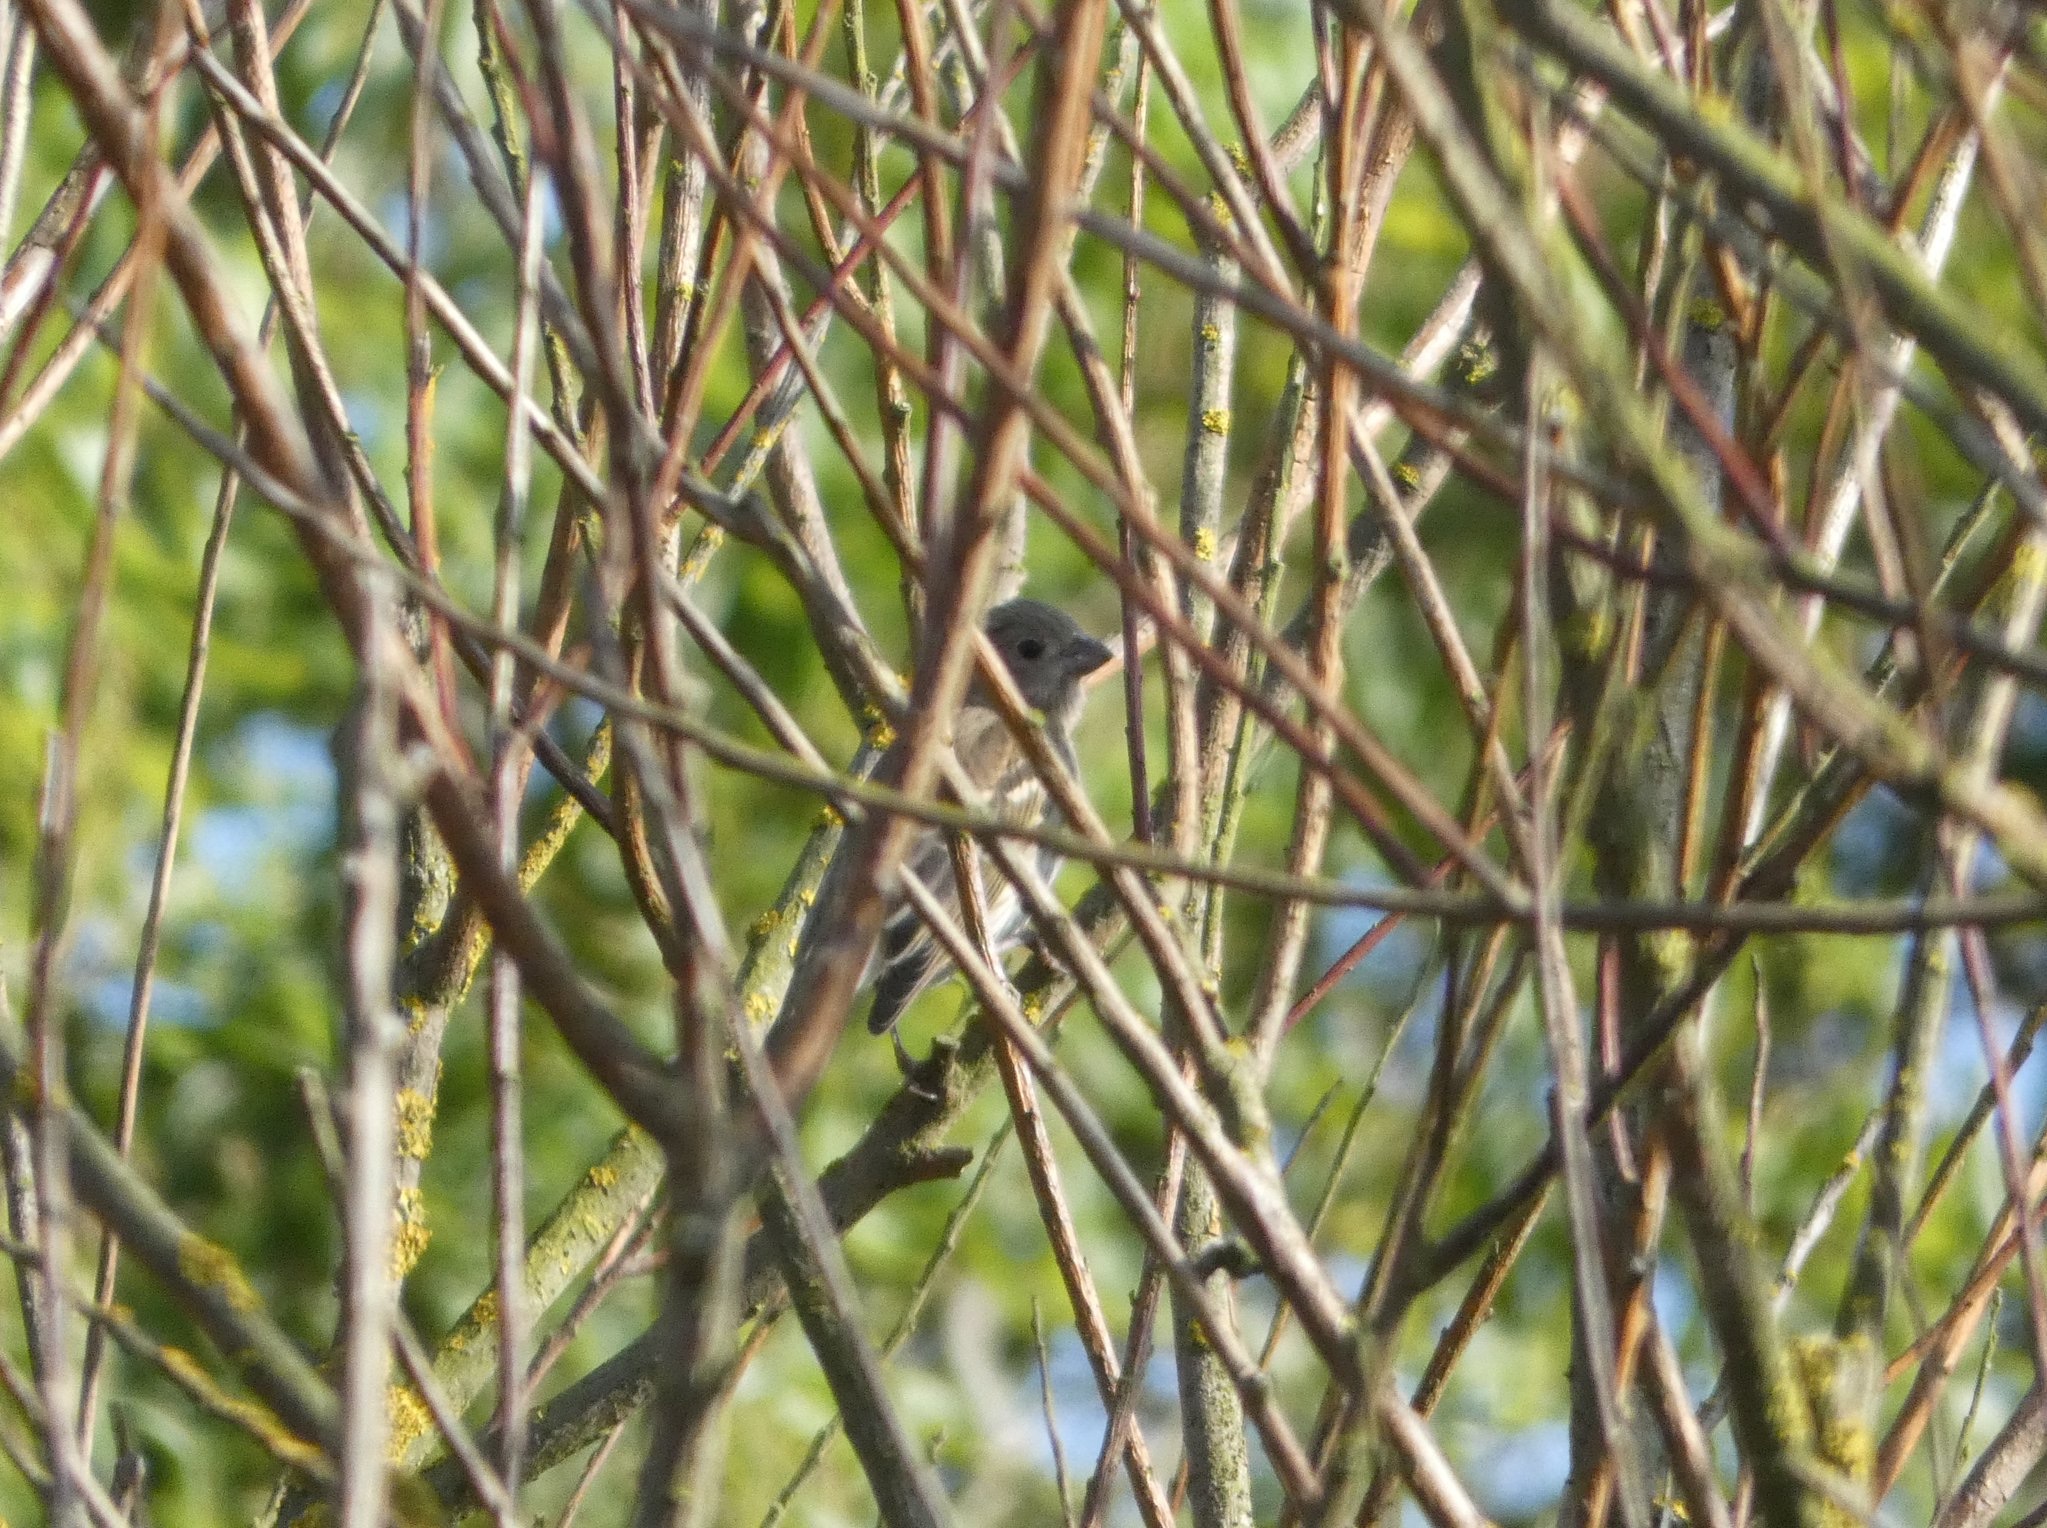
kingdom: Animalia
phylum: Chordata
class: Aves
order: Passeriformes
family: Fringillidae
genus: Carpodacus
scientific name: Carpodacus erythrinus
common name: Common rosefinch
